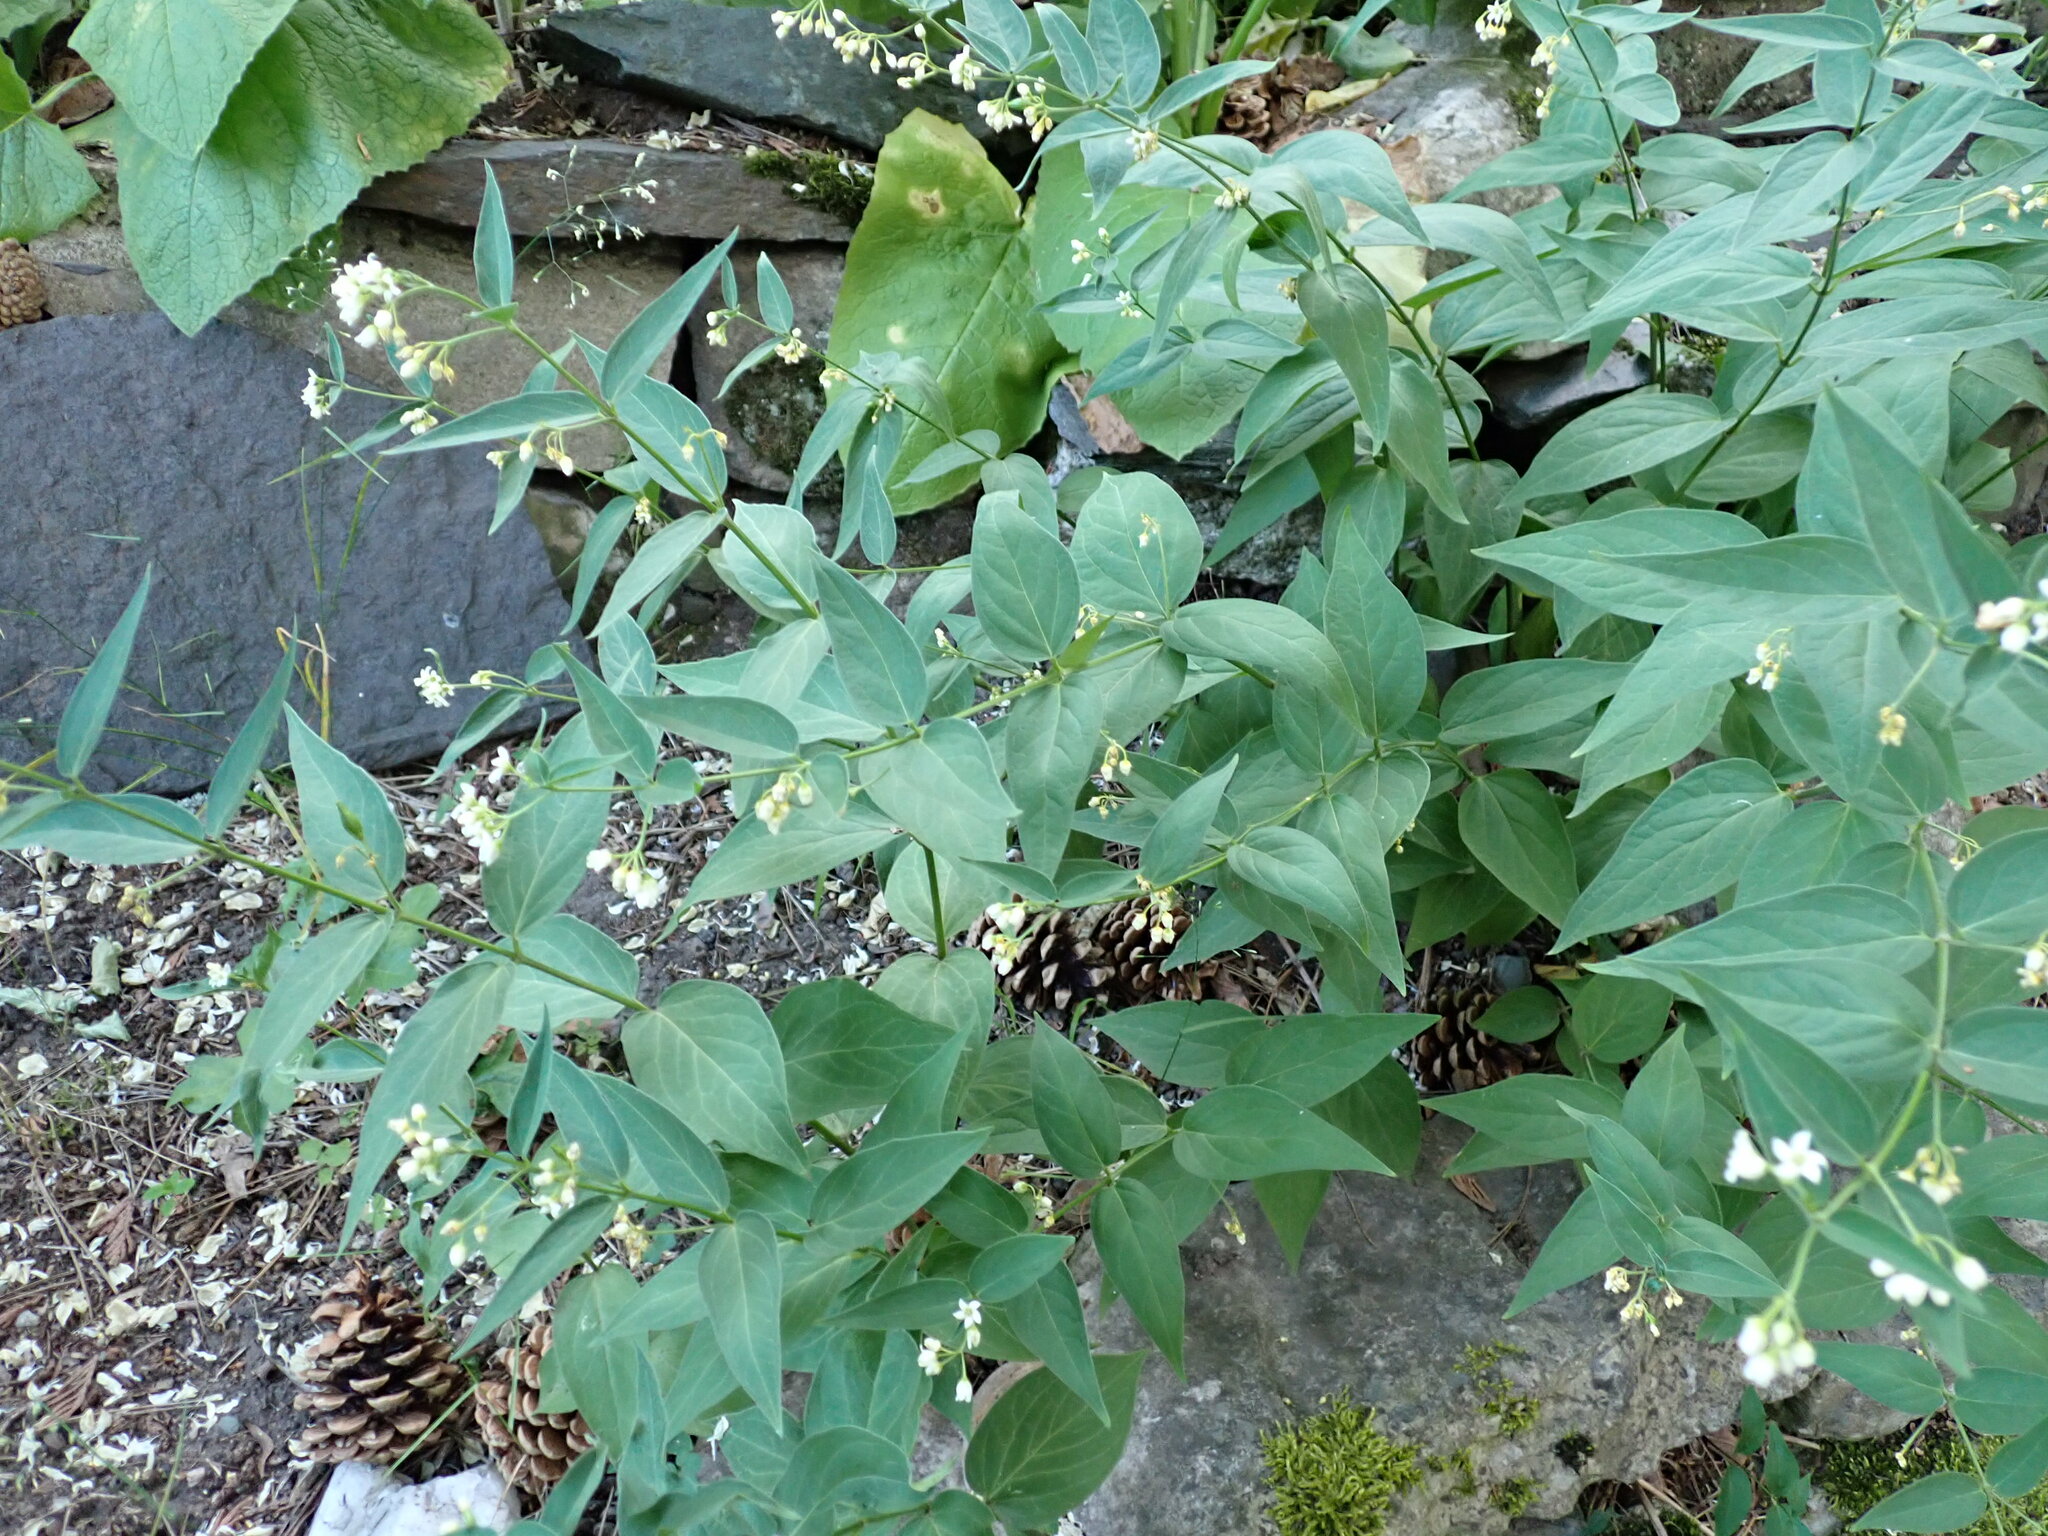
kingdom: Plantae
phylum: Tracheophyta
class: Magnoliopsida
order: Gentianales
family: Apocynaceae
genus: Vincetoxicum
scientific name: Vincetoxicum hirundinaria
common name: White swallowwort
